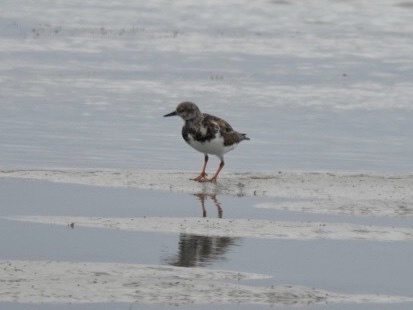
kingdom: Animalia
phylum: Chordata
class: Aves
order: Charadriiformes
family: Scolopacidae
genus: Arenaria
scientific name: Arenaria interpres
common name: Ruddy turnstone
